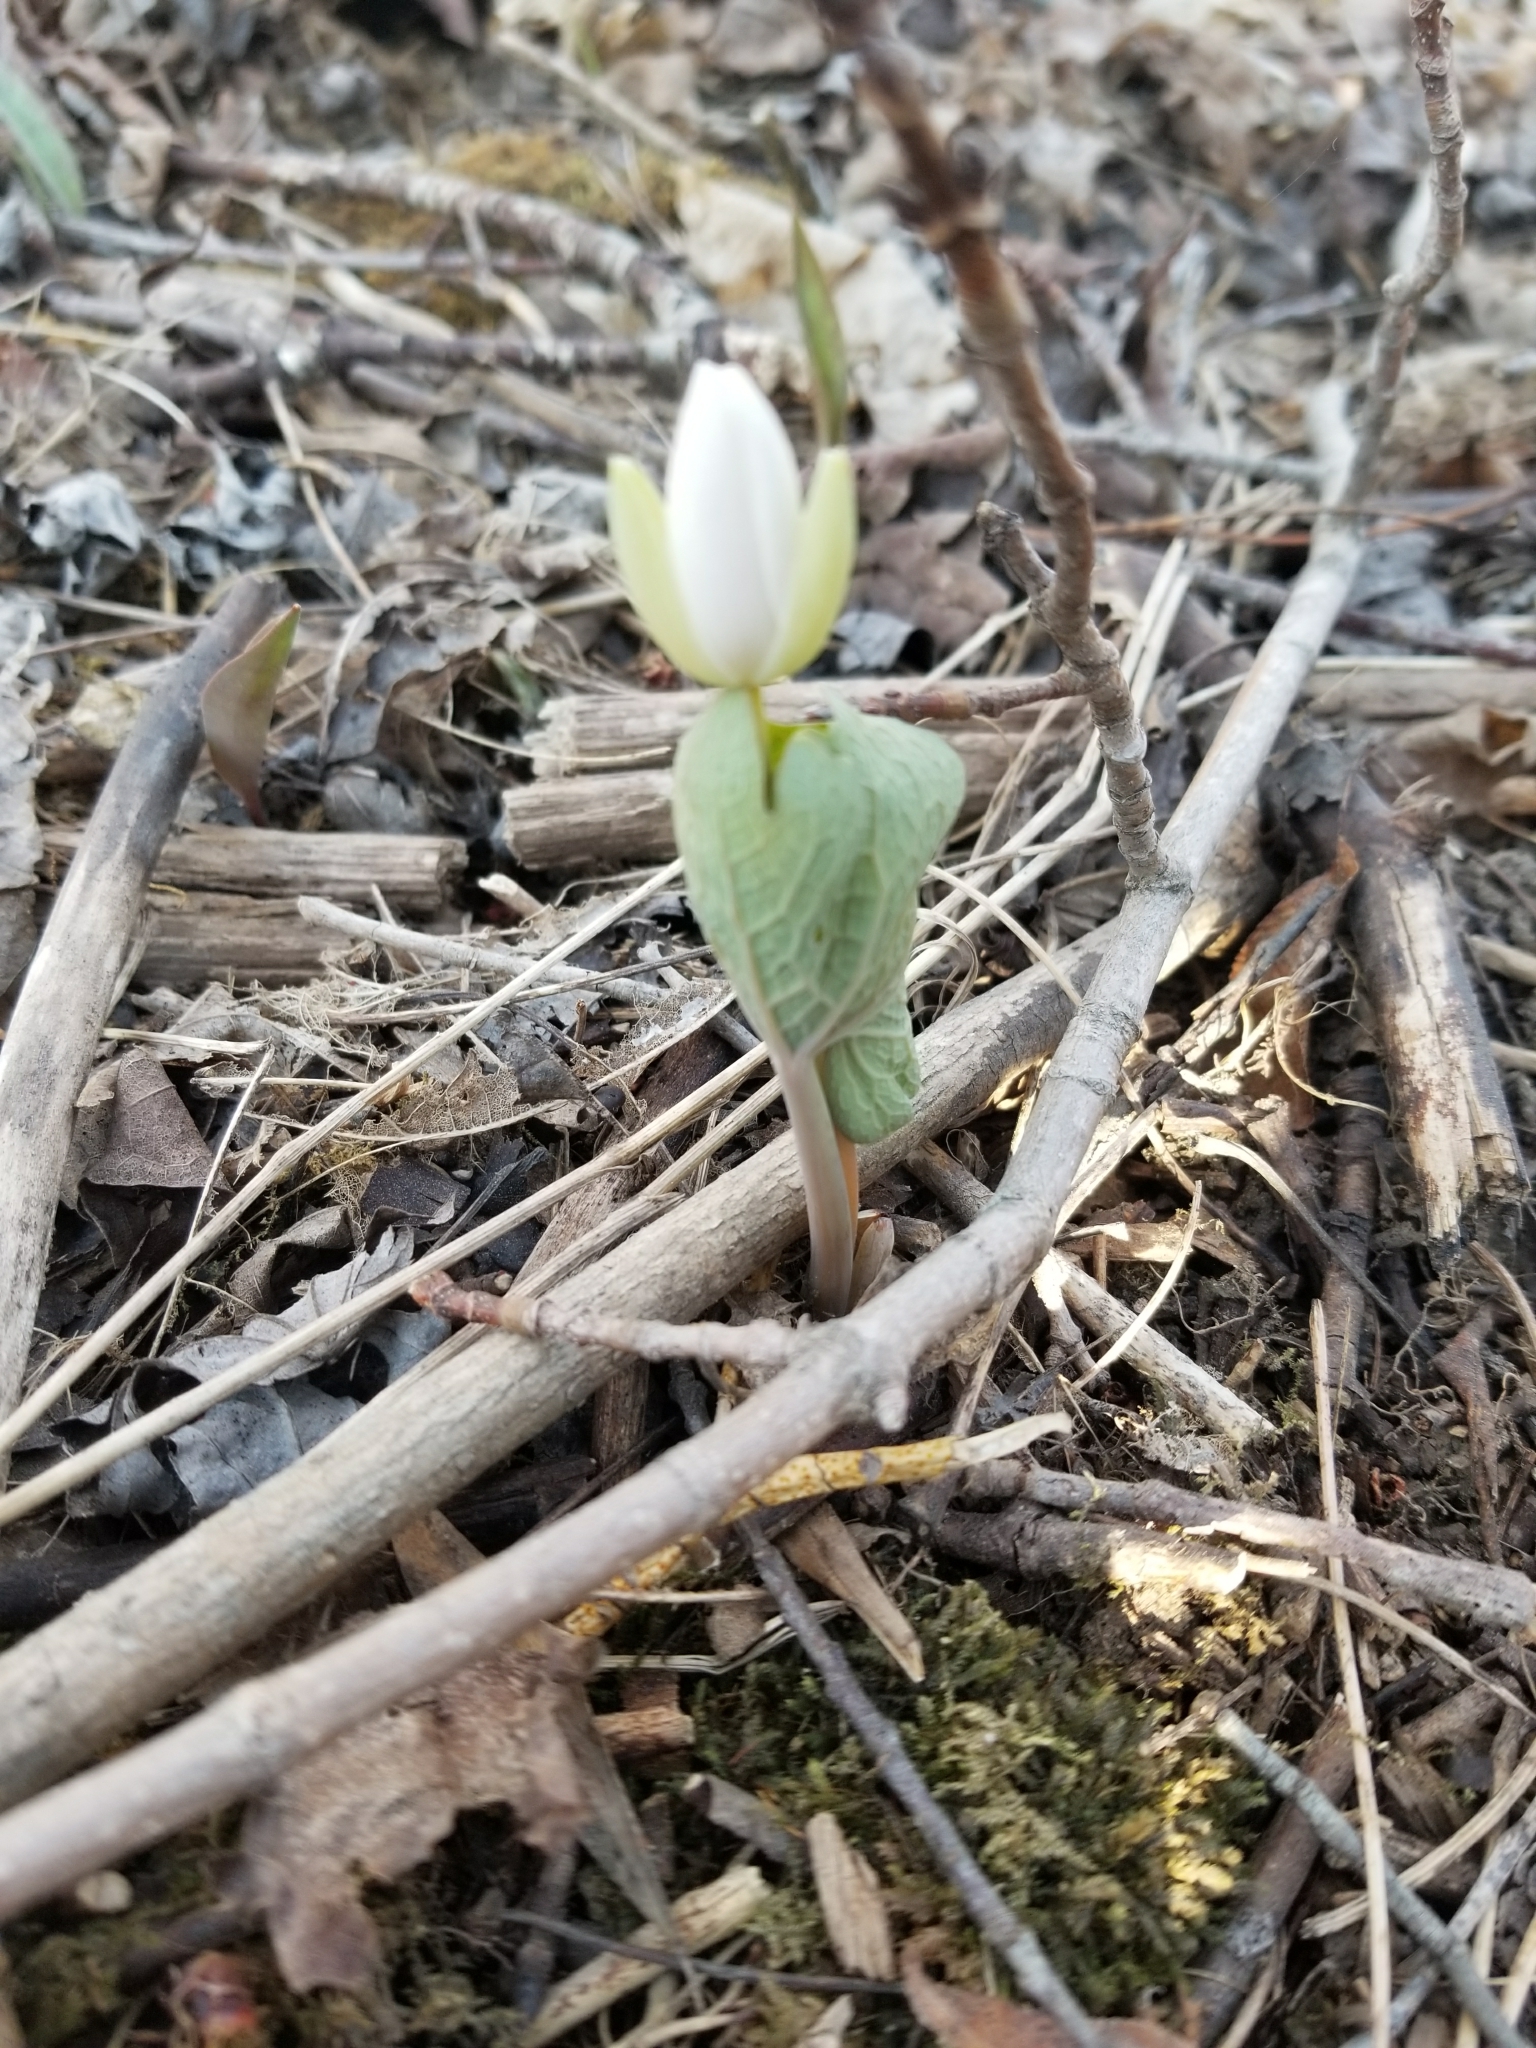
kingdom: Plantae
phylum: Tracheophyta
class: Magnoliopsida
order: Ranunculales
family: Papaveraceae
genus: Sanguinaria
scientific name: Sanguinaria canadensis
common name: Bloodroot
